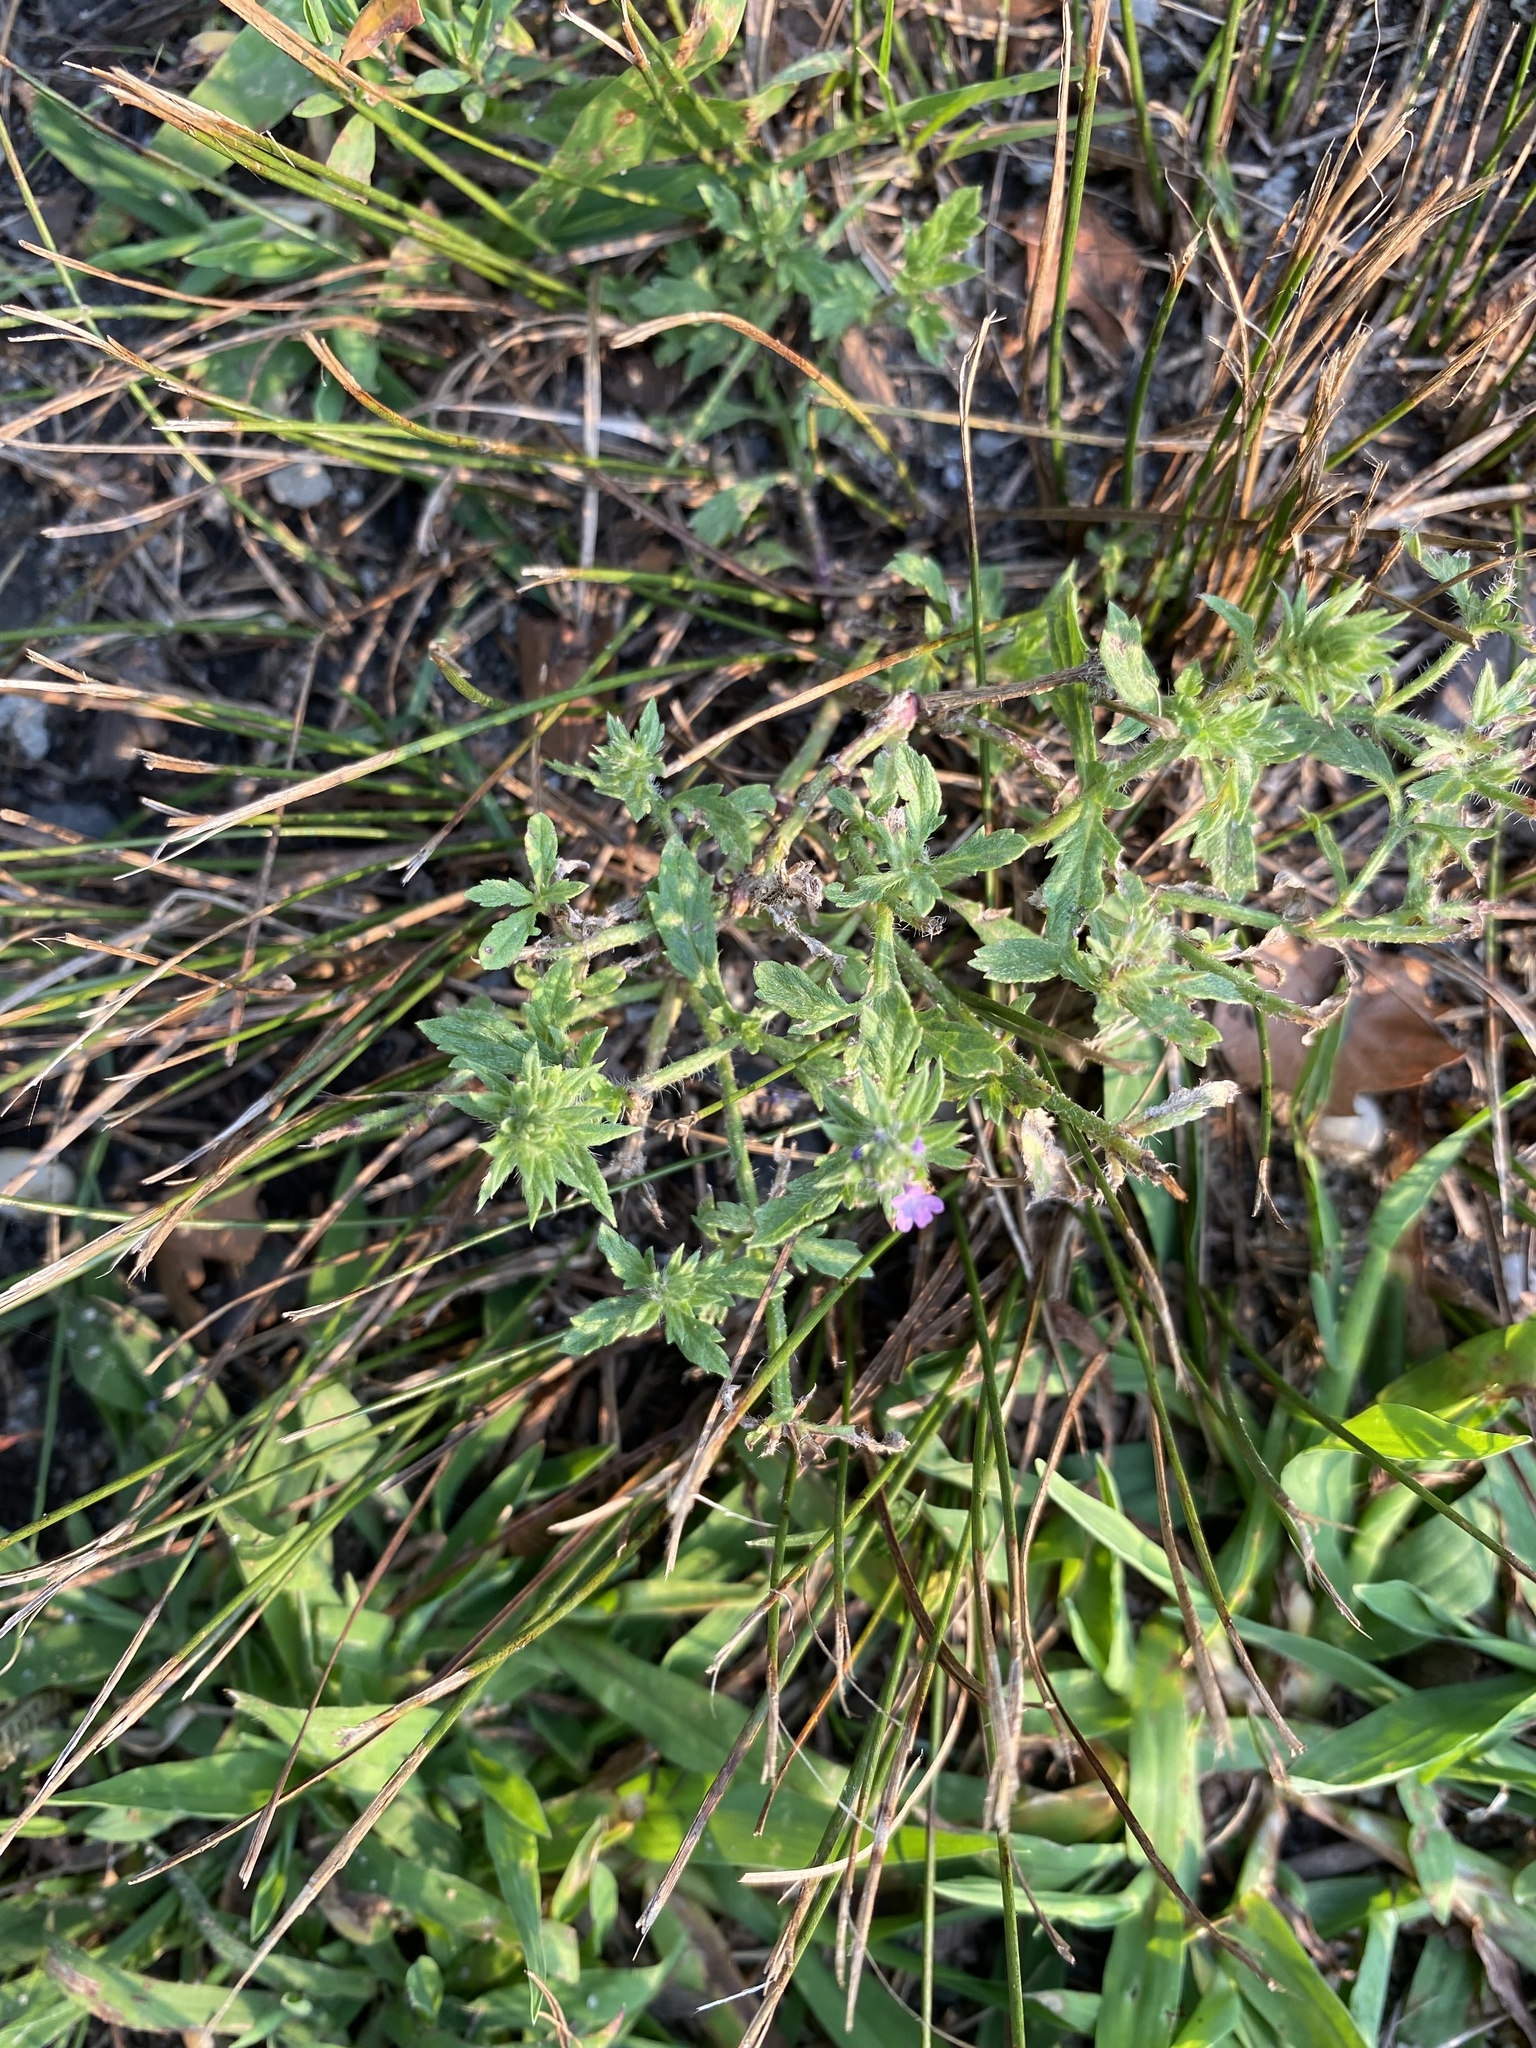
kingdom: Plantae
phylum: Tracheophyta
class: Magnoliopsida
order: Lamiales
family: Verbenaceae
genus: Verbena
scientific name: Verbena bracteata
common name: Bracted vervain
